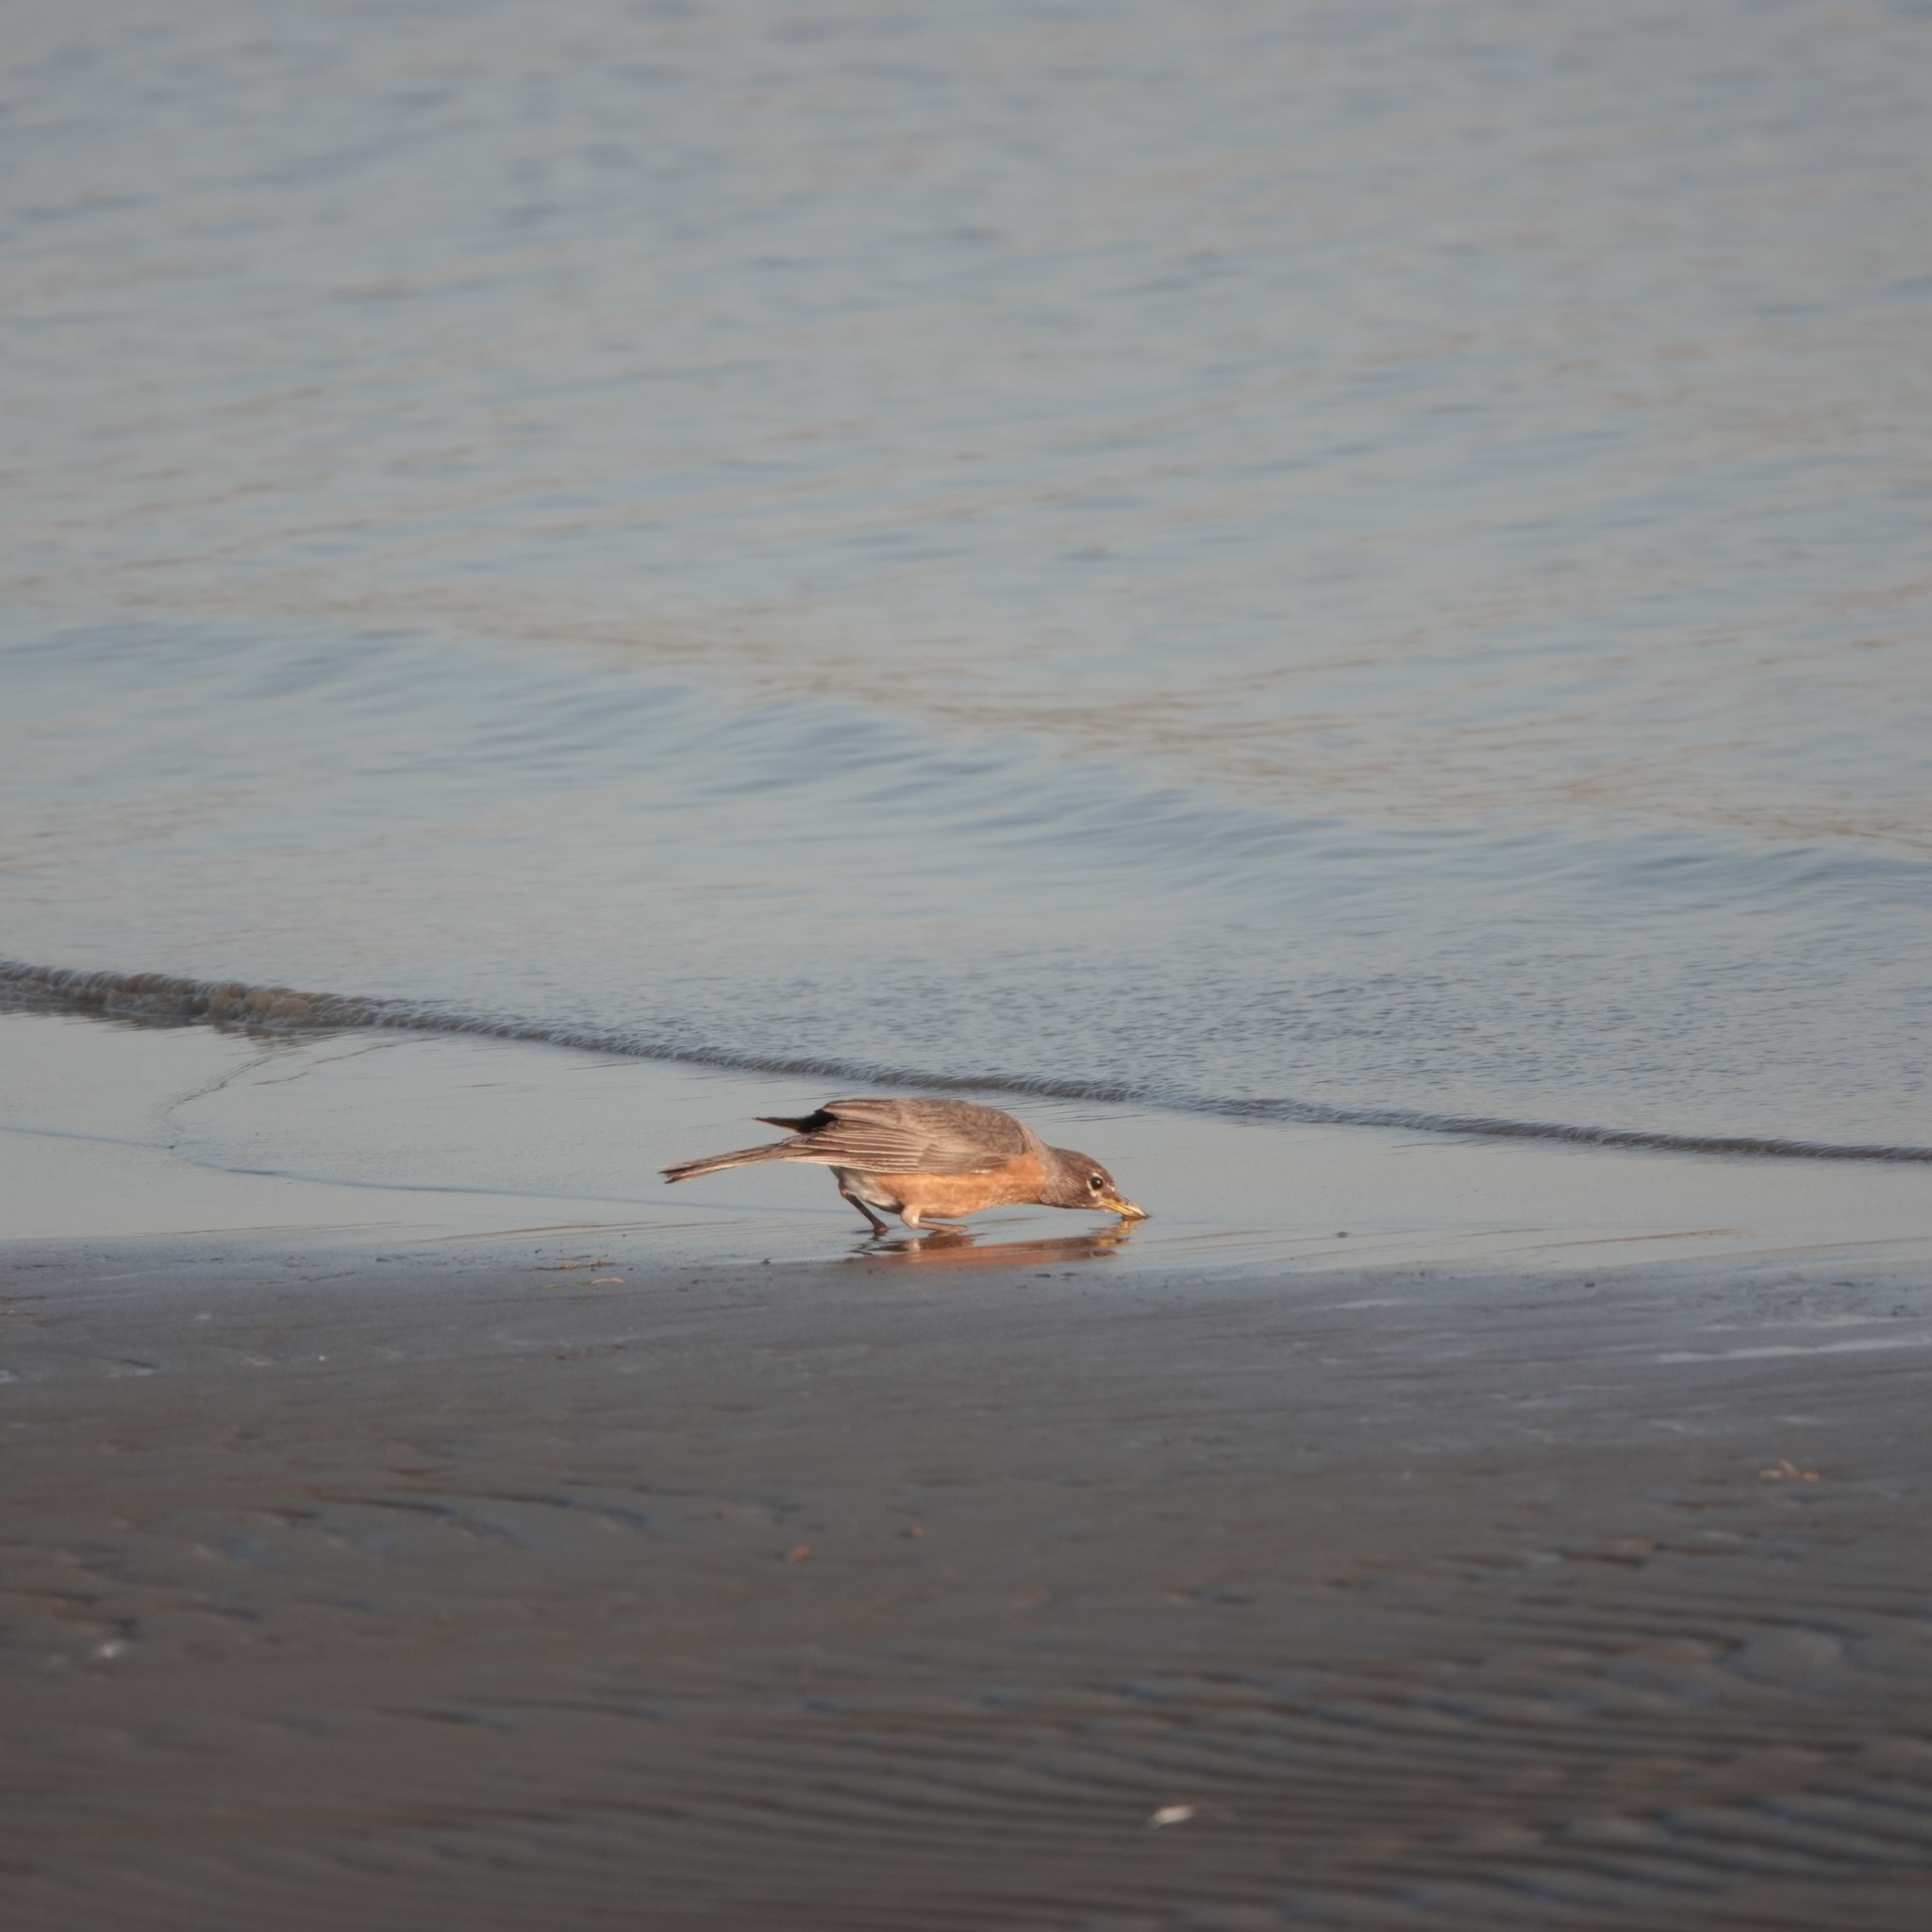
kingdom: Animalia
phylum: Chordata
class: Aves
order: Passeriformes
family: Turdidae
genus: Turdus
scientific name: Turdus migratorius
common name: American robin
